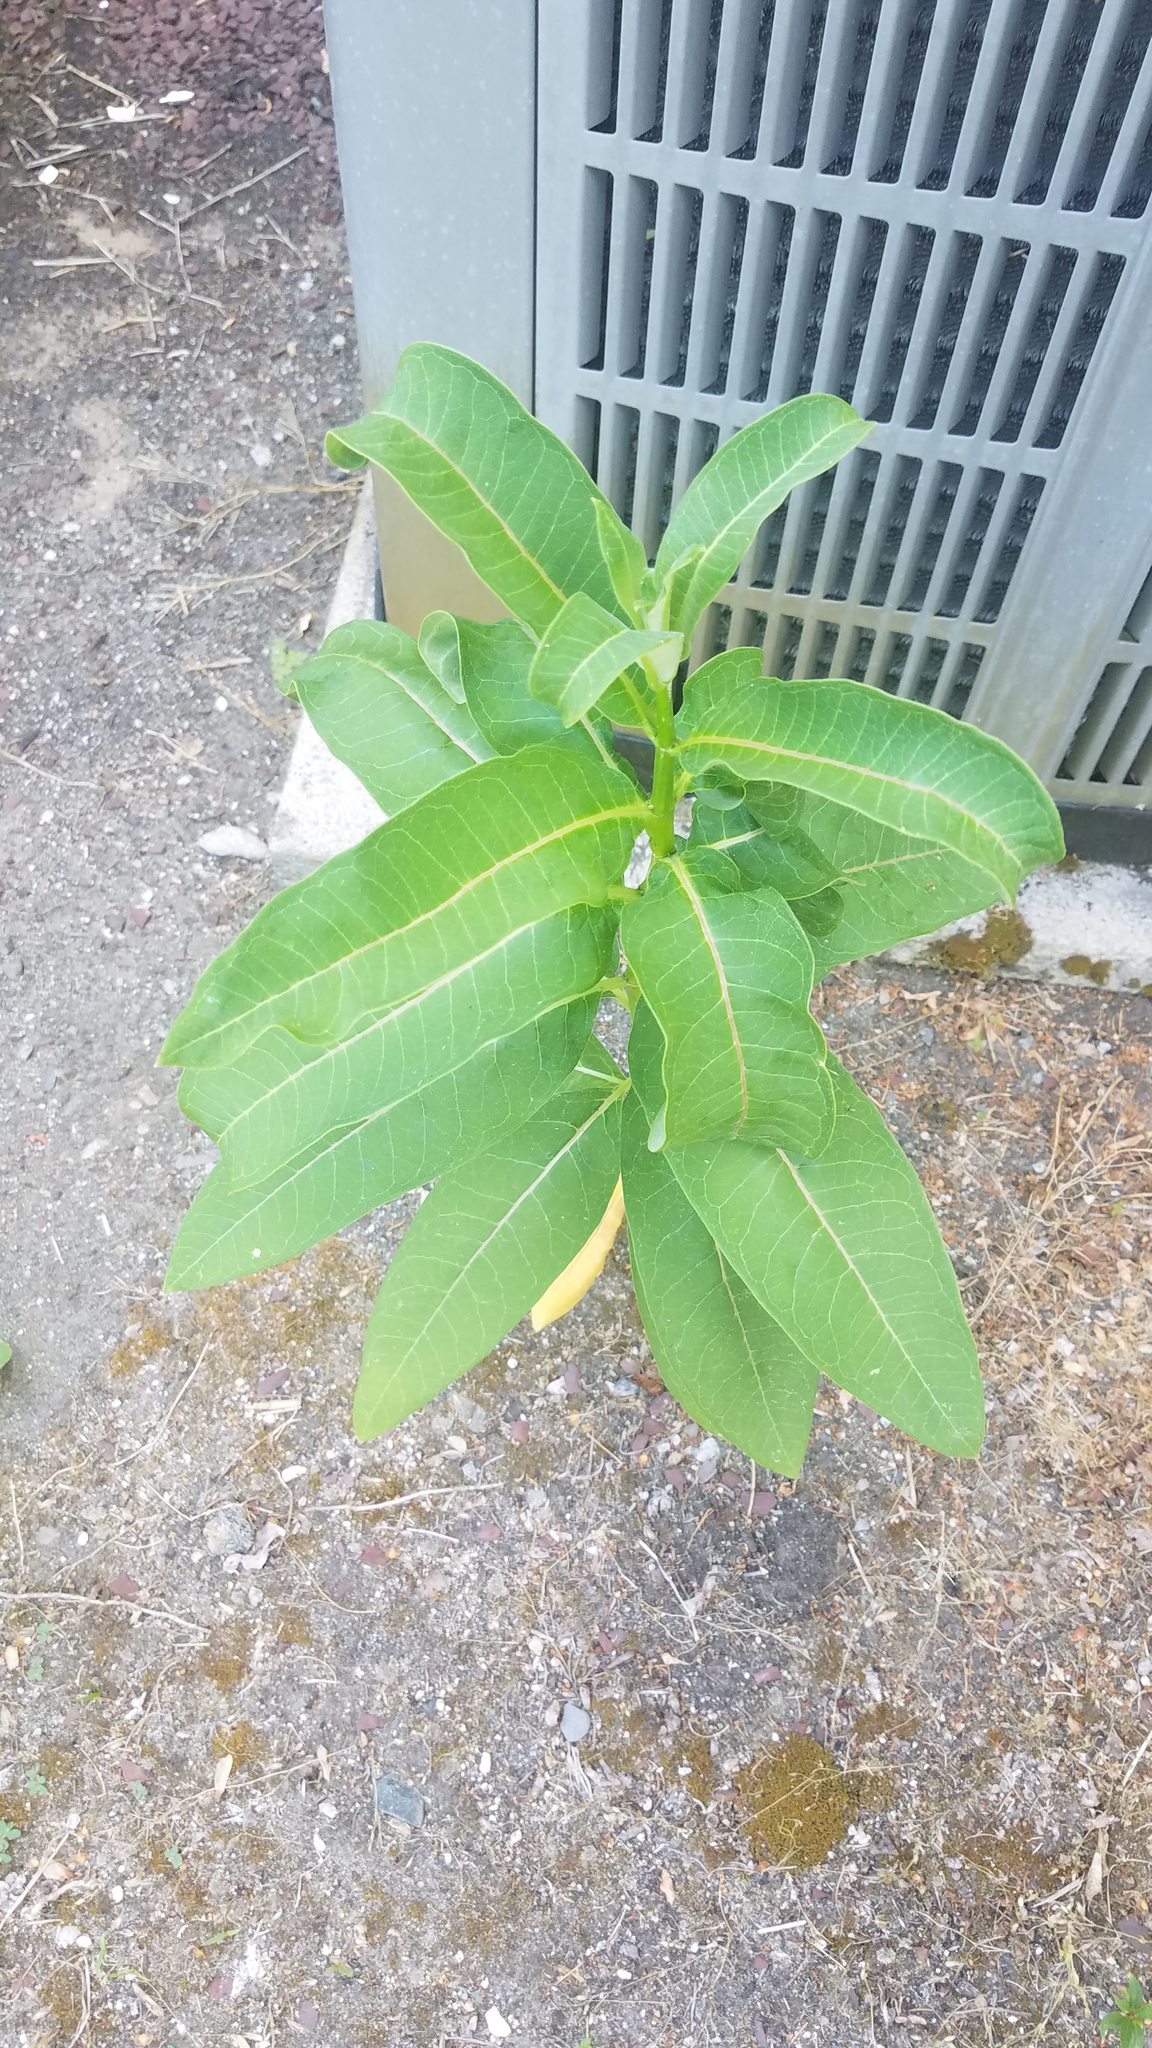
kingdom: Plantae
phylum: Tracheophyta
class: Magnoliopsida
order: Gentianales
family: Apocynaceae
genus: Asclepias
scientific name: Asclepias syriaca
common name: Common milkweed
